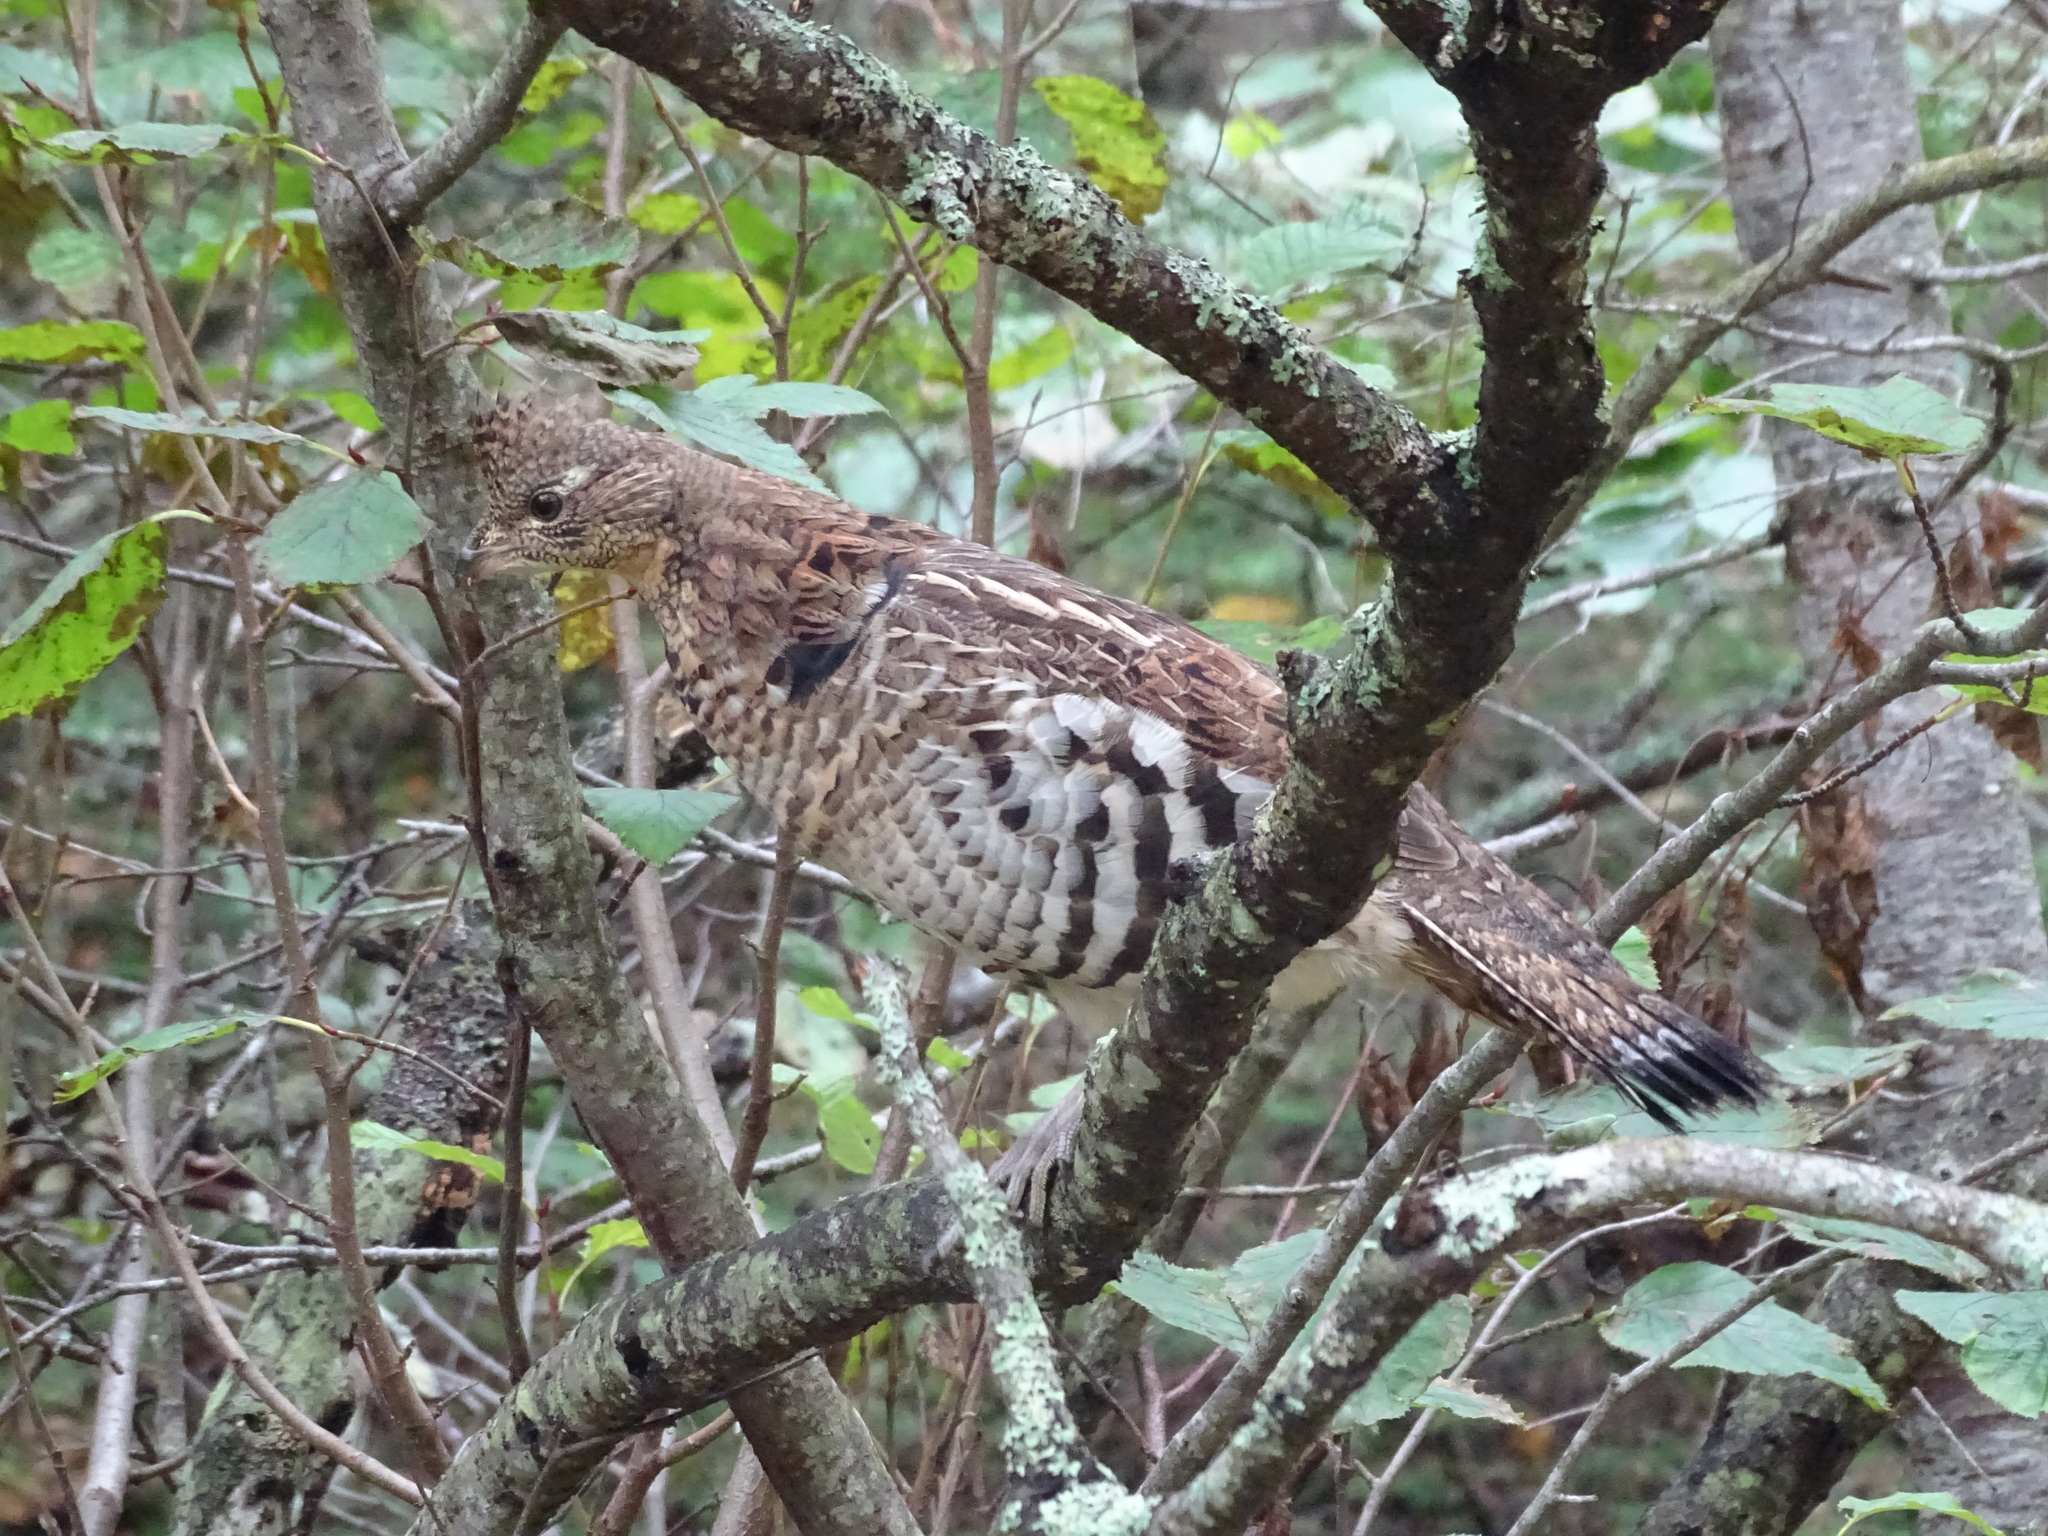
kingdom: Animalia
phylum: Chordata
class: Aves
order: Galliformes
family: Phasianidae
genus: Bonasa
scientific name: Bonasa umbellus
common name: Ruffed grouse
